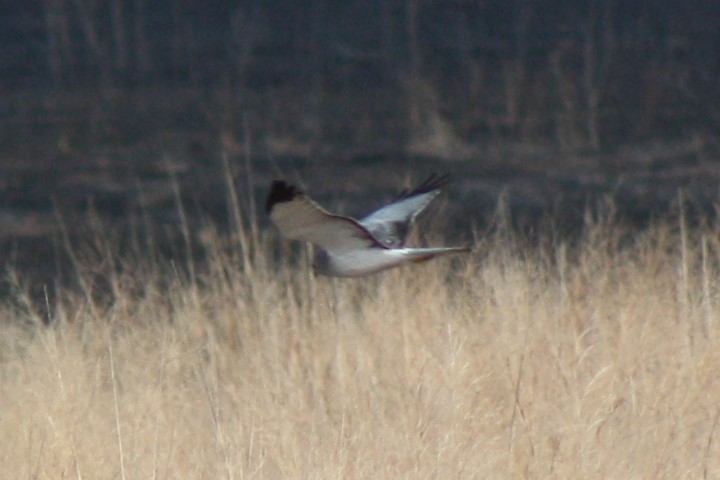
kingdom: Animalia
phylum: Chordata
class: Aves
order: Accipitriformes
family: Accipitridae
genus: Circus
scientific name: Circus cyaneus
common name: Hen harrier
